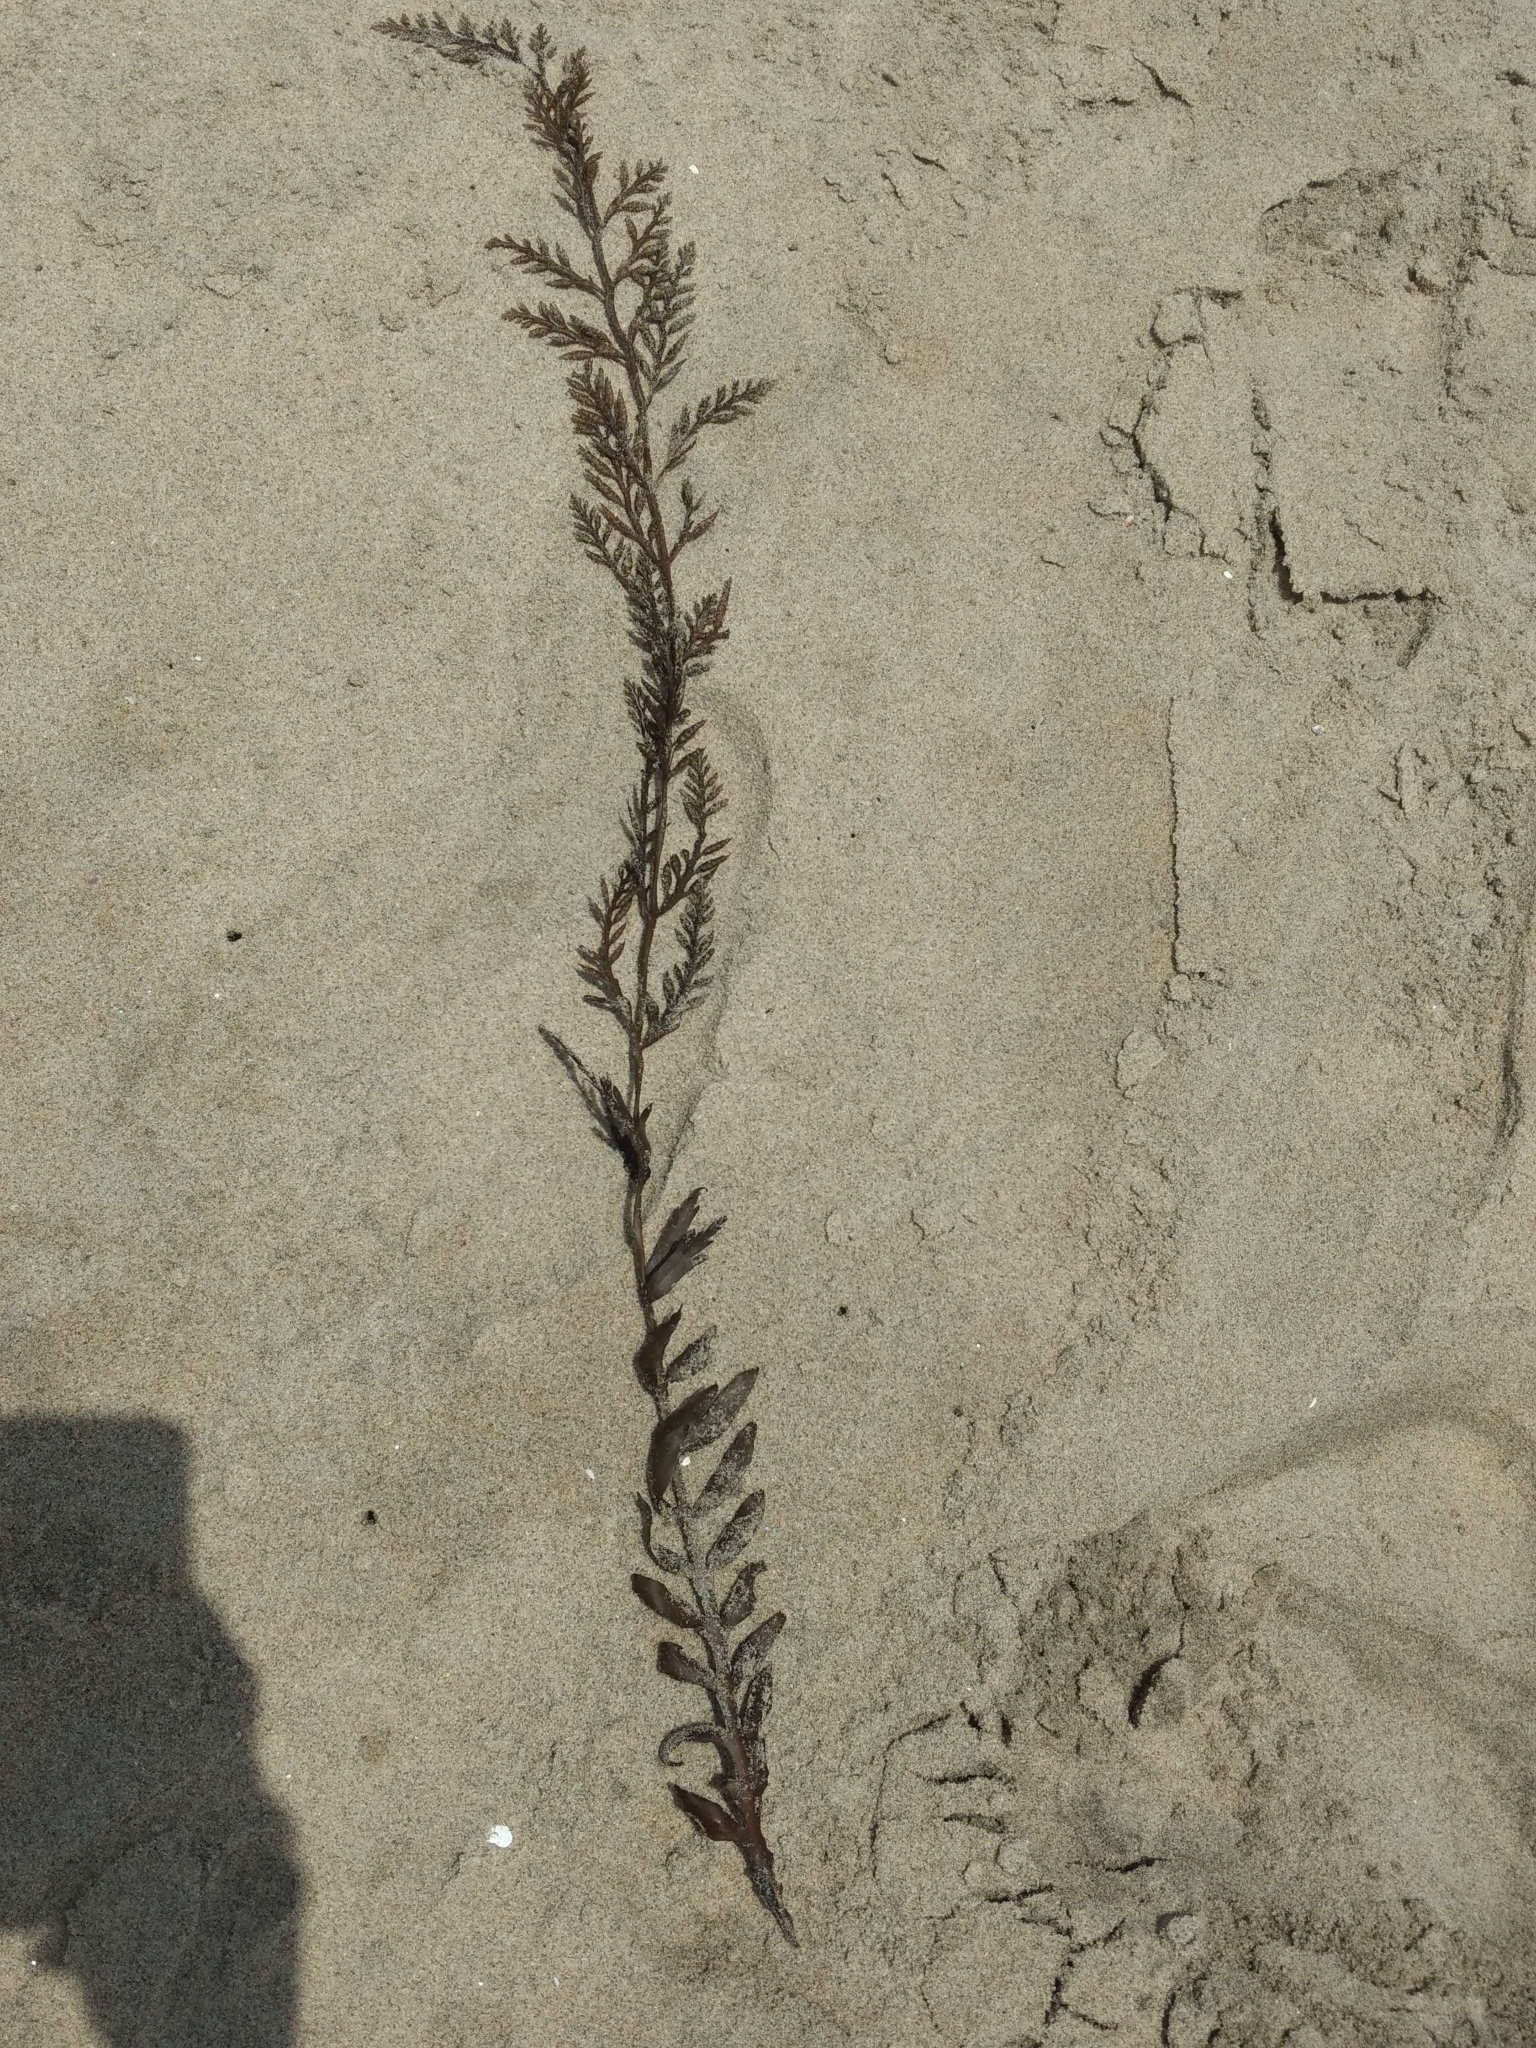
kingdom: Chromista
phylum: Ochrophyta
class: Phaeophyceae
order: Fucales
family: Sargassaceae
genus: Stephanocystis
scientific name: Stephanocystis
